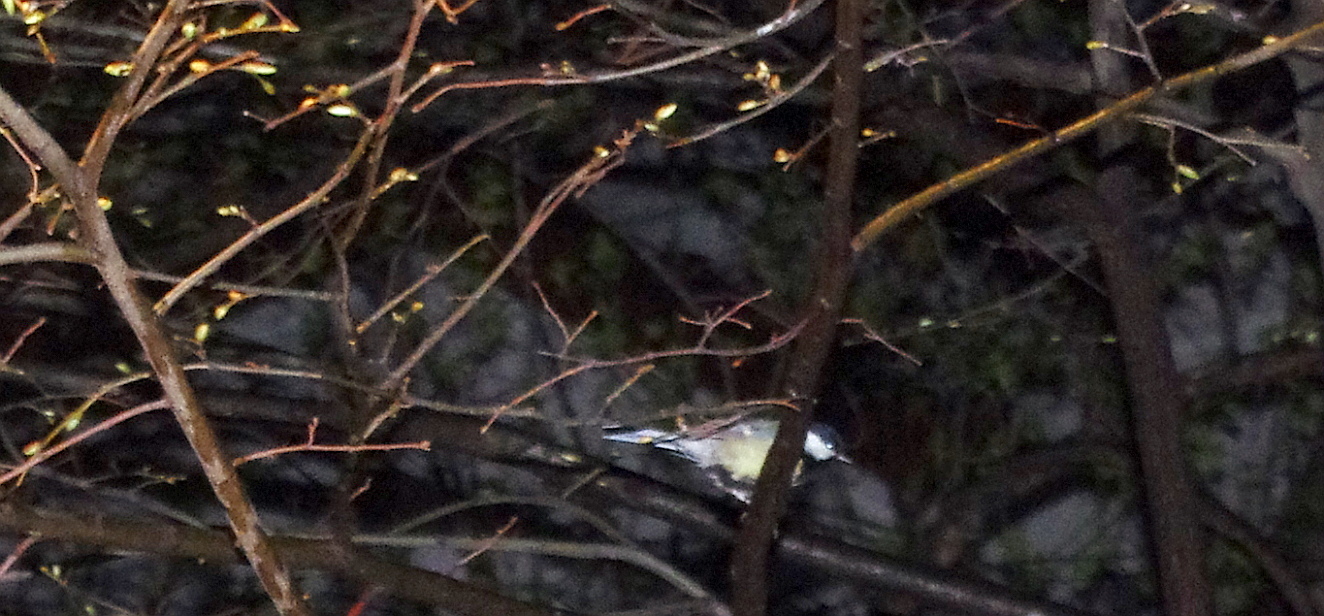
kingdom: Animalia
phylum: Chordata
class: Aves
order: Passeriformes
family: Paridae
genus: Parus
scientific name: Parus major
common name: Great tit
